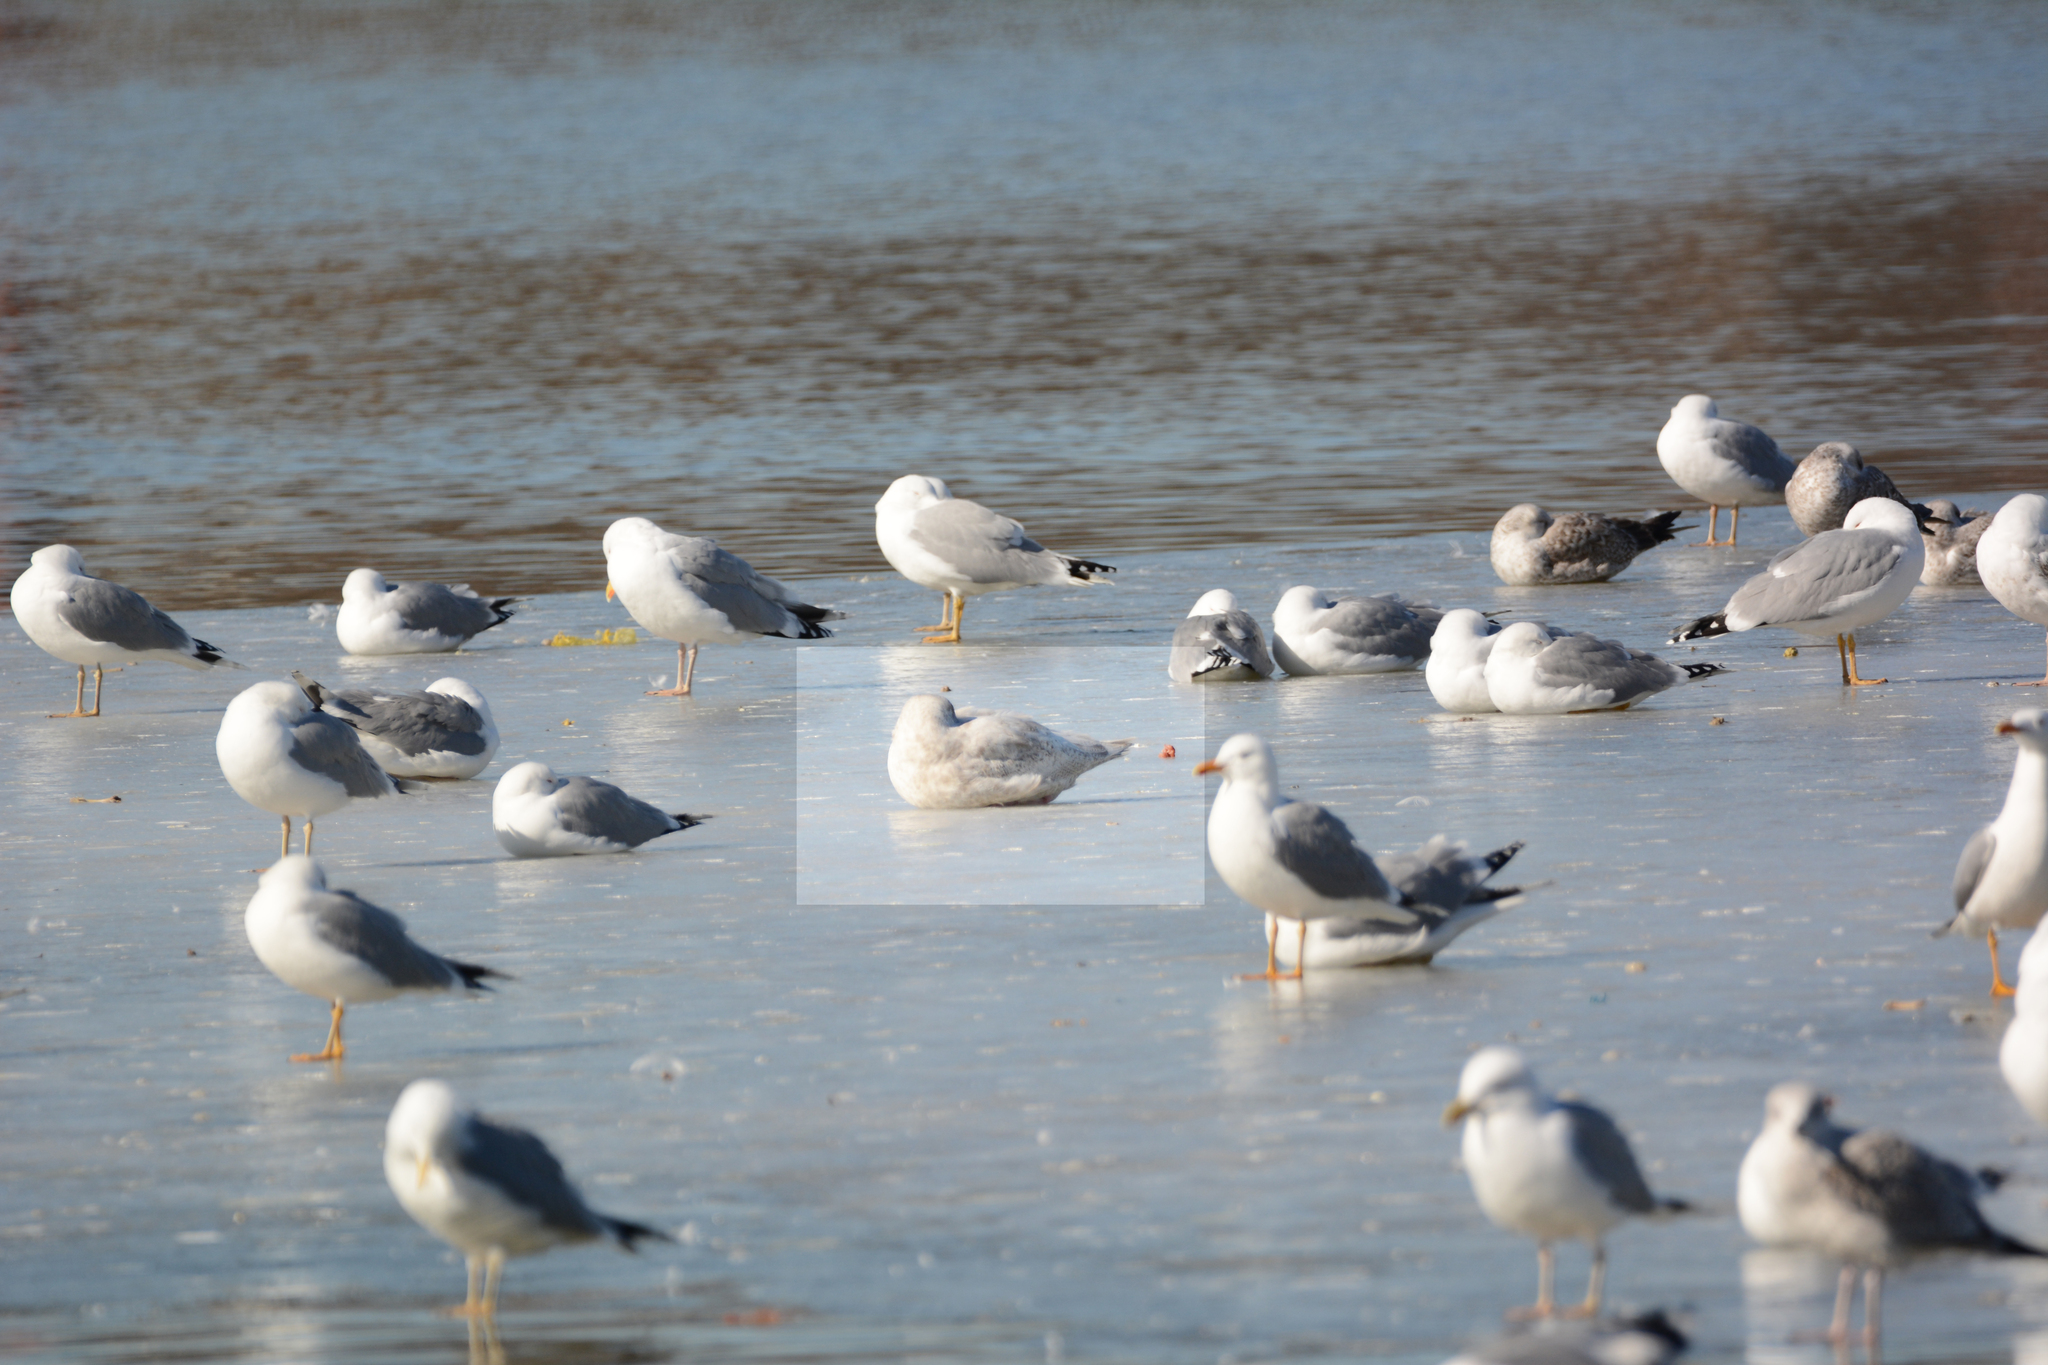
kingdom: Animalia
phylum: Chordata
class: Aves
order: Charadriiformes
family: Laridae
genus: Larus
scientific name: Larus hyperboreus
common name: Glaucous gull
